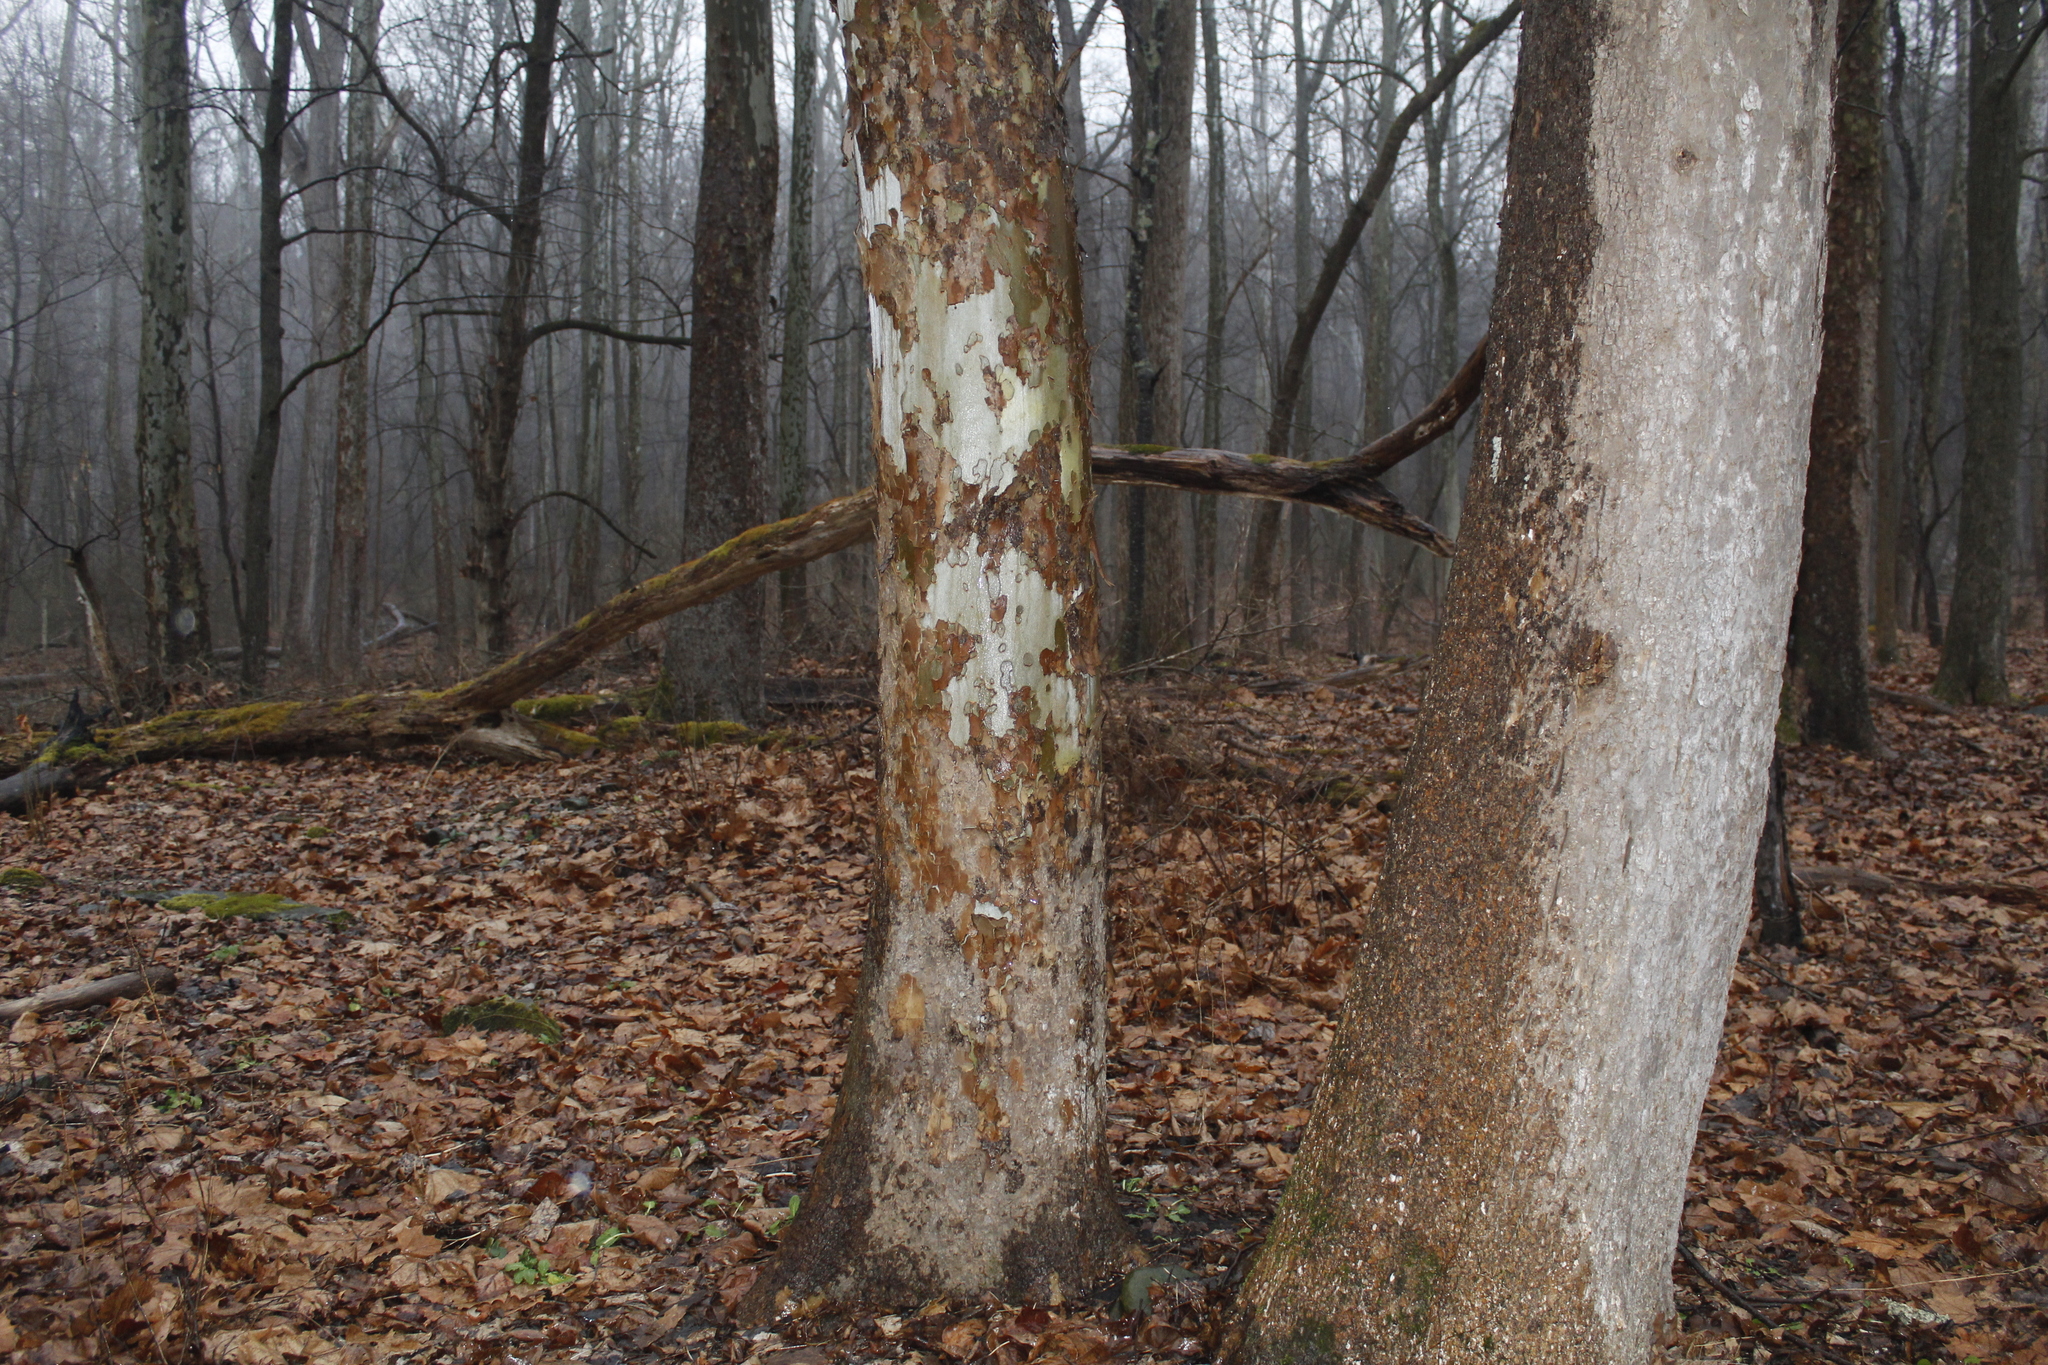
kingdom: Plantae
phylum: Tracheophyta
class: Magnoliopsida
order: Proteales
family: Platanaceae
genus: Platanus
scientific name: Platanus occidentalis
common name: American sycamore
